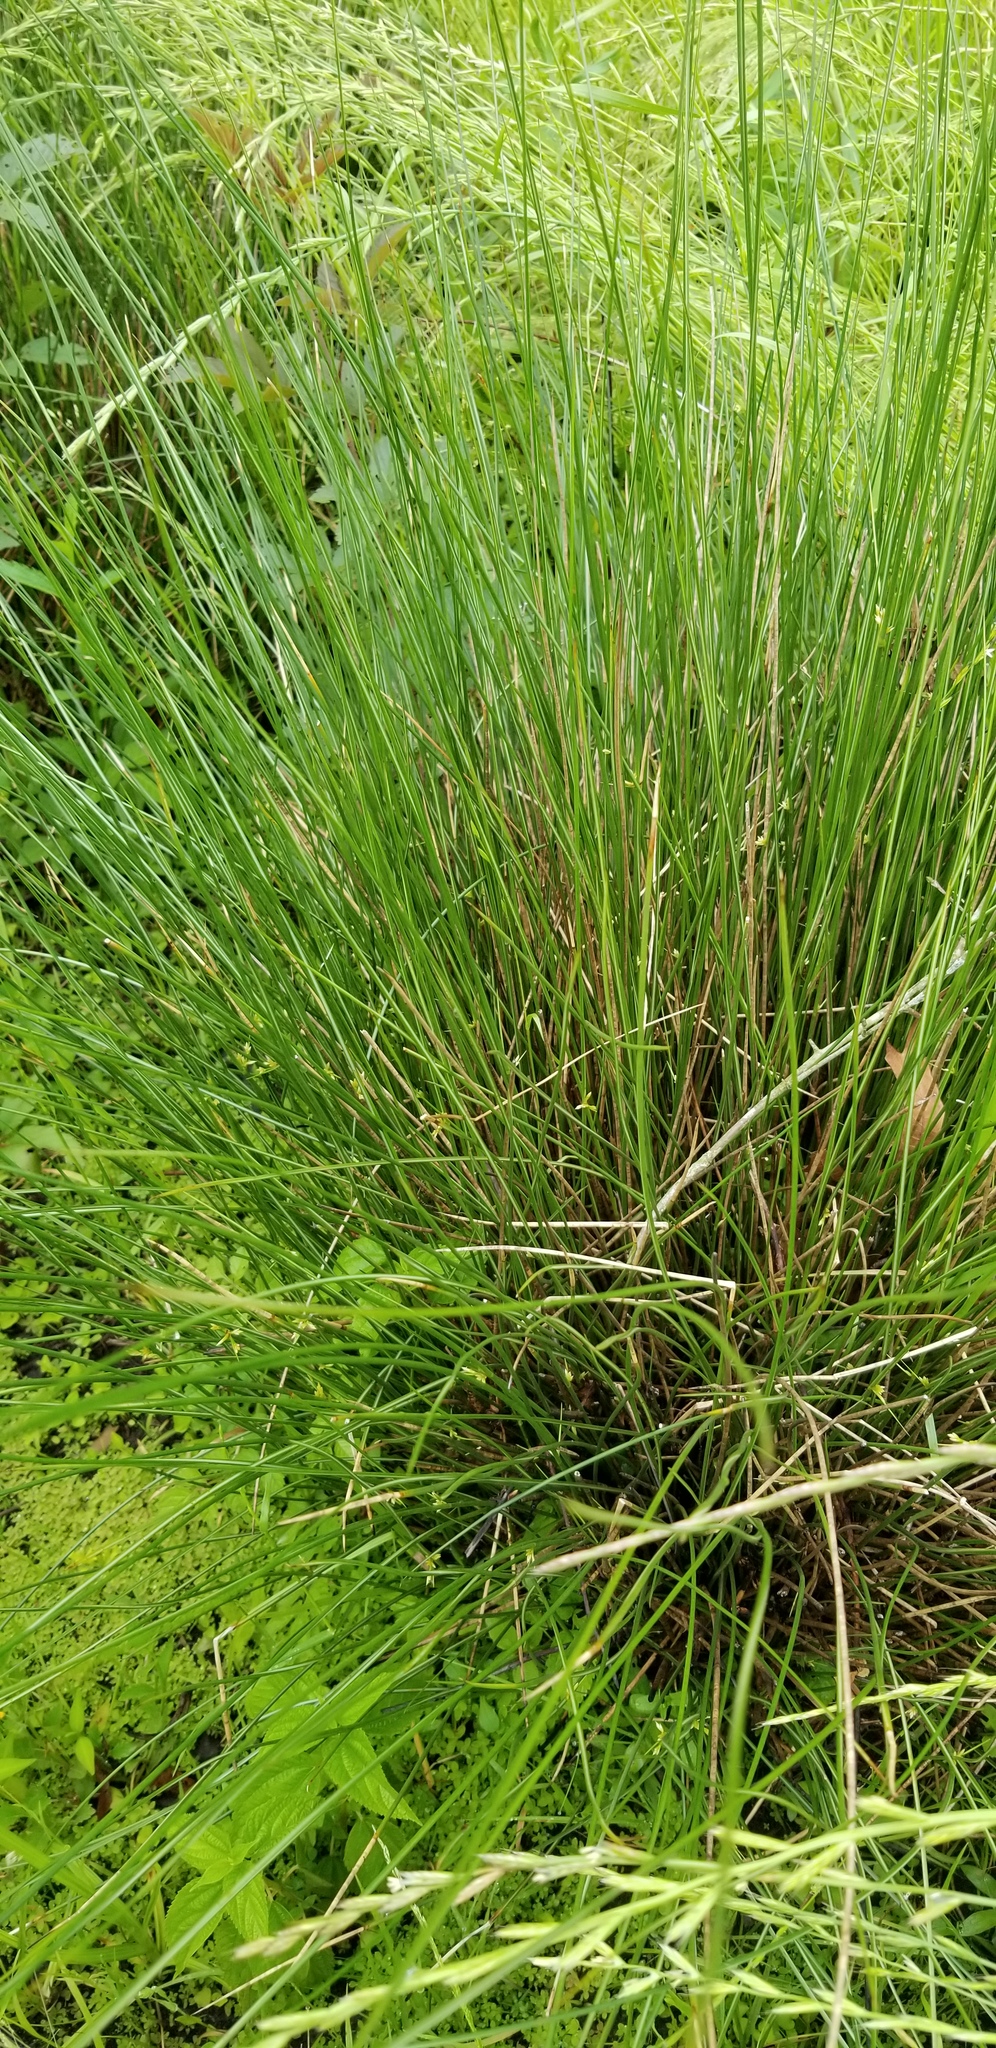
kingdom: Plantae
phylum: Tracheophyta
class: Liliopsida
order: Poales
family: Juncaceae
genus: Juncus
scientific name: Juncus effusus
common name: Soft rush
